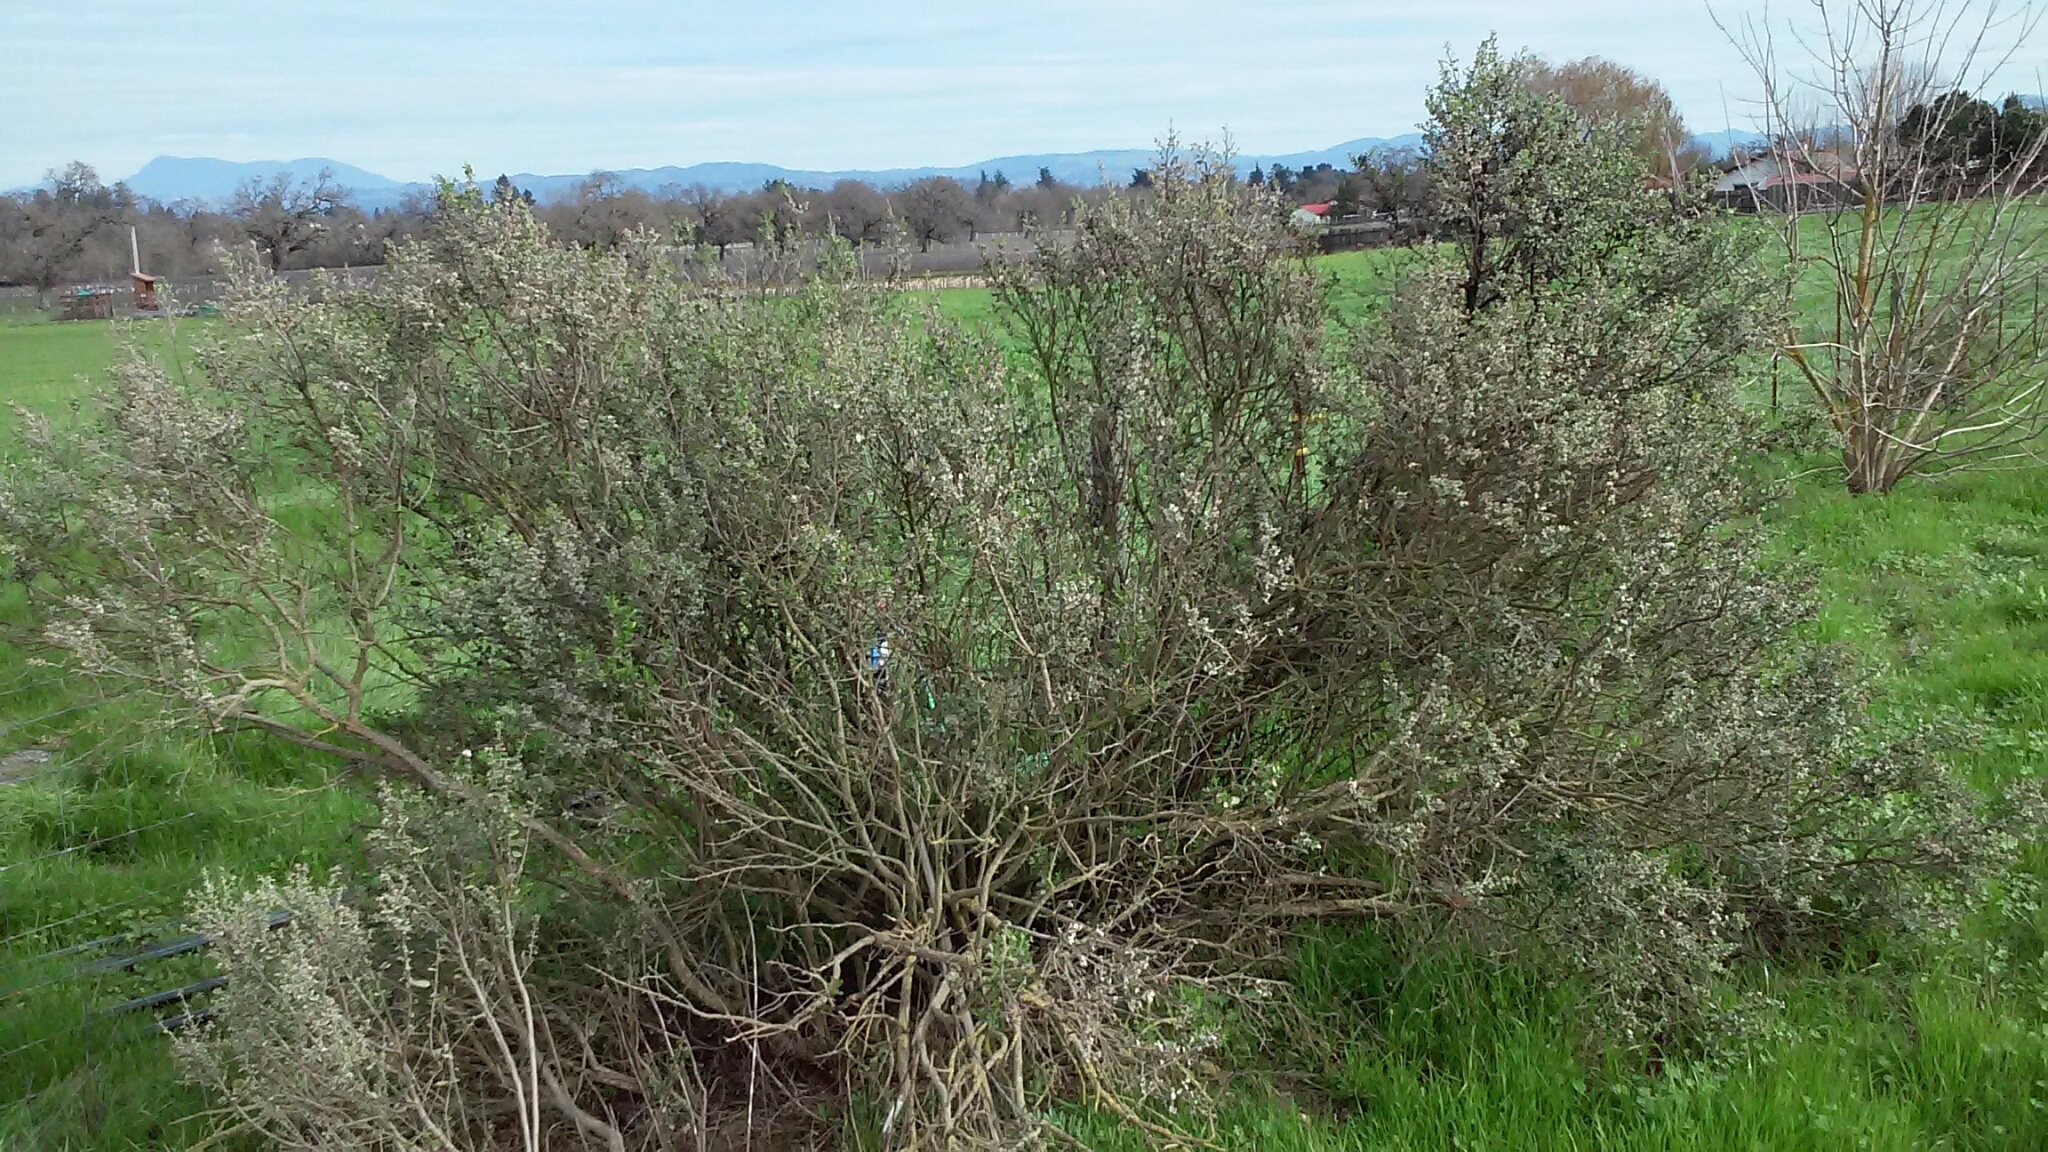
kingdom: Plantae
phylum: Tracheophyta
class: Magnoliopsida
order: Asterales
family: Asteraceae
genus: Baccharis
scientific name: Baccharis pilularis
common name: Coyotebrush
